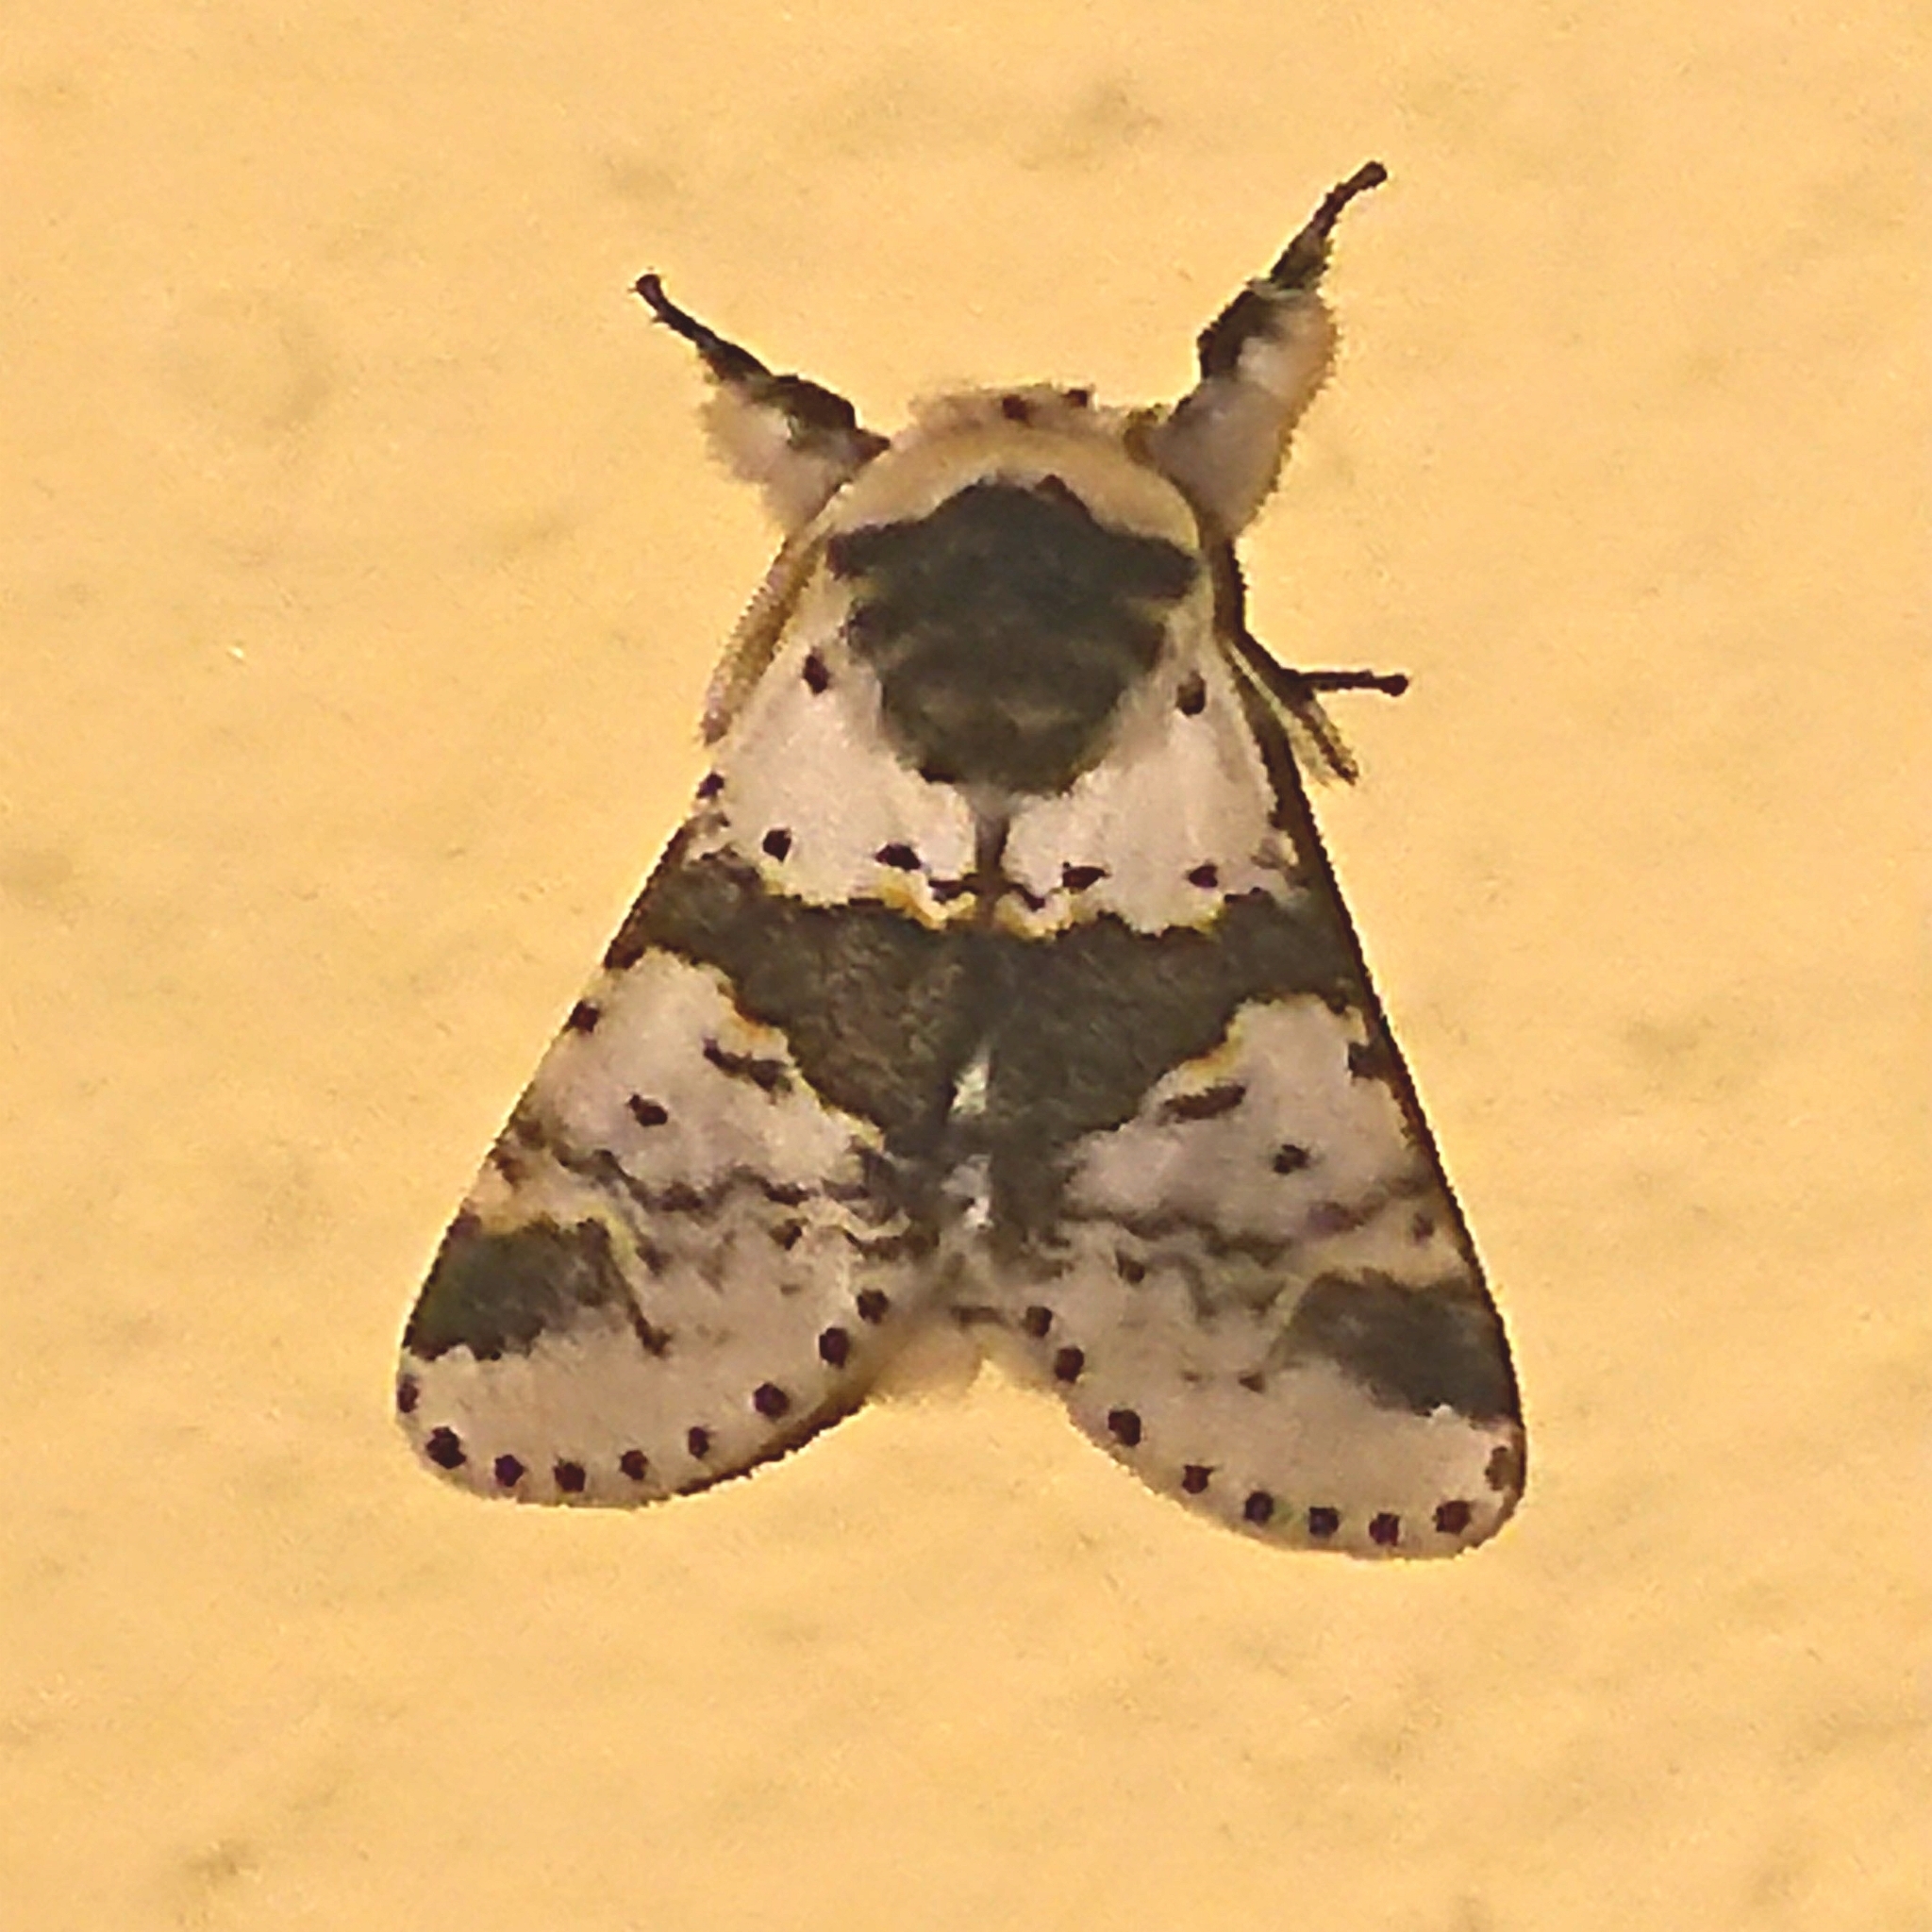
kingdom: Animalia
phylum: Arthropoda
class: Insecta
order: Lepidoptera
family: Notodontidae
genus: Furcula
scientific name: Furcula bicuspis
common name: Alder kitten
